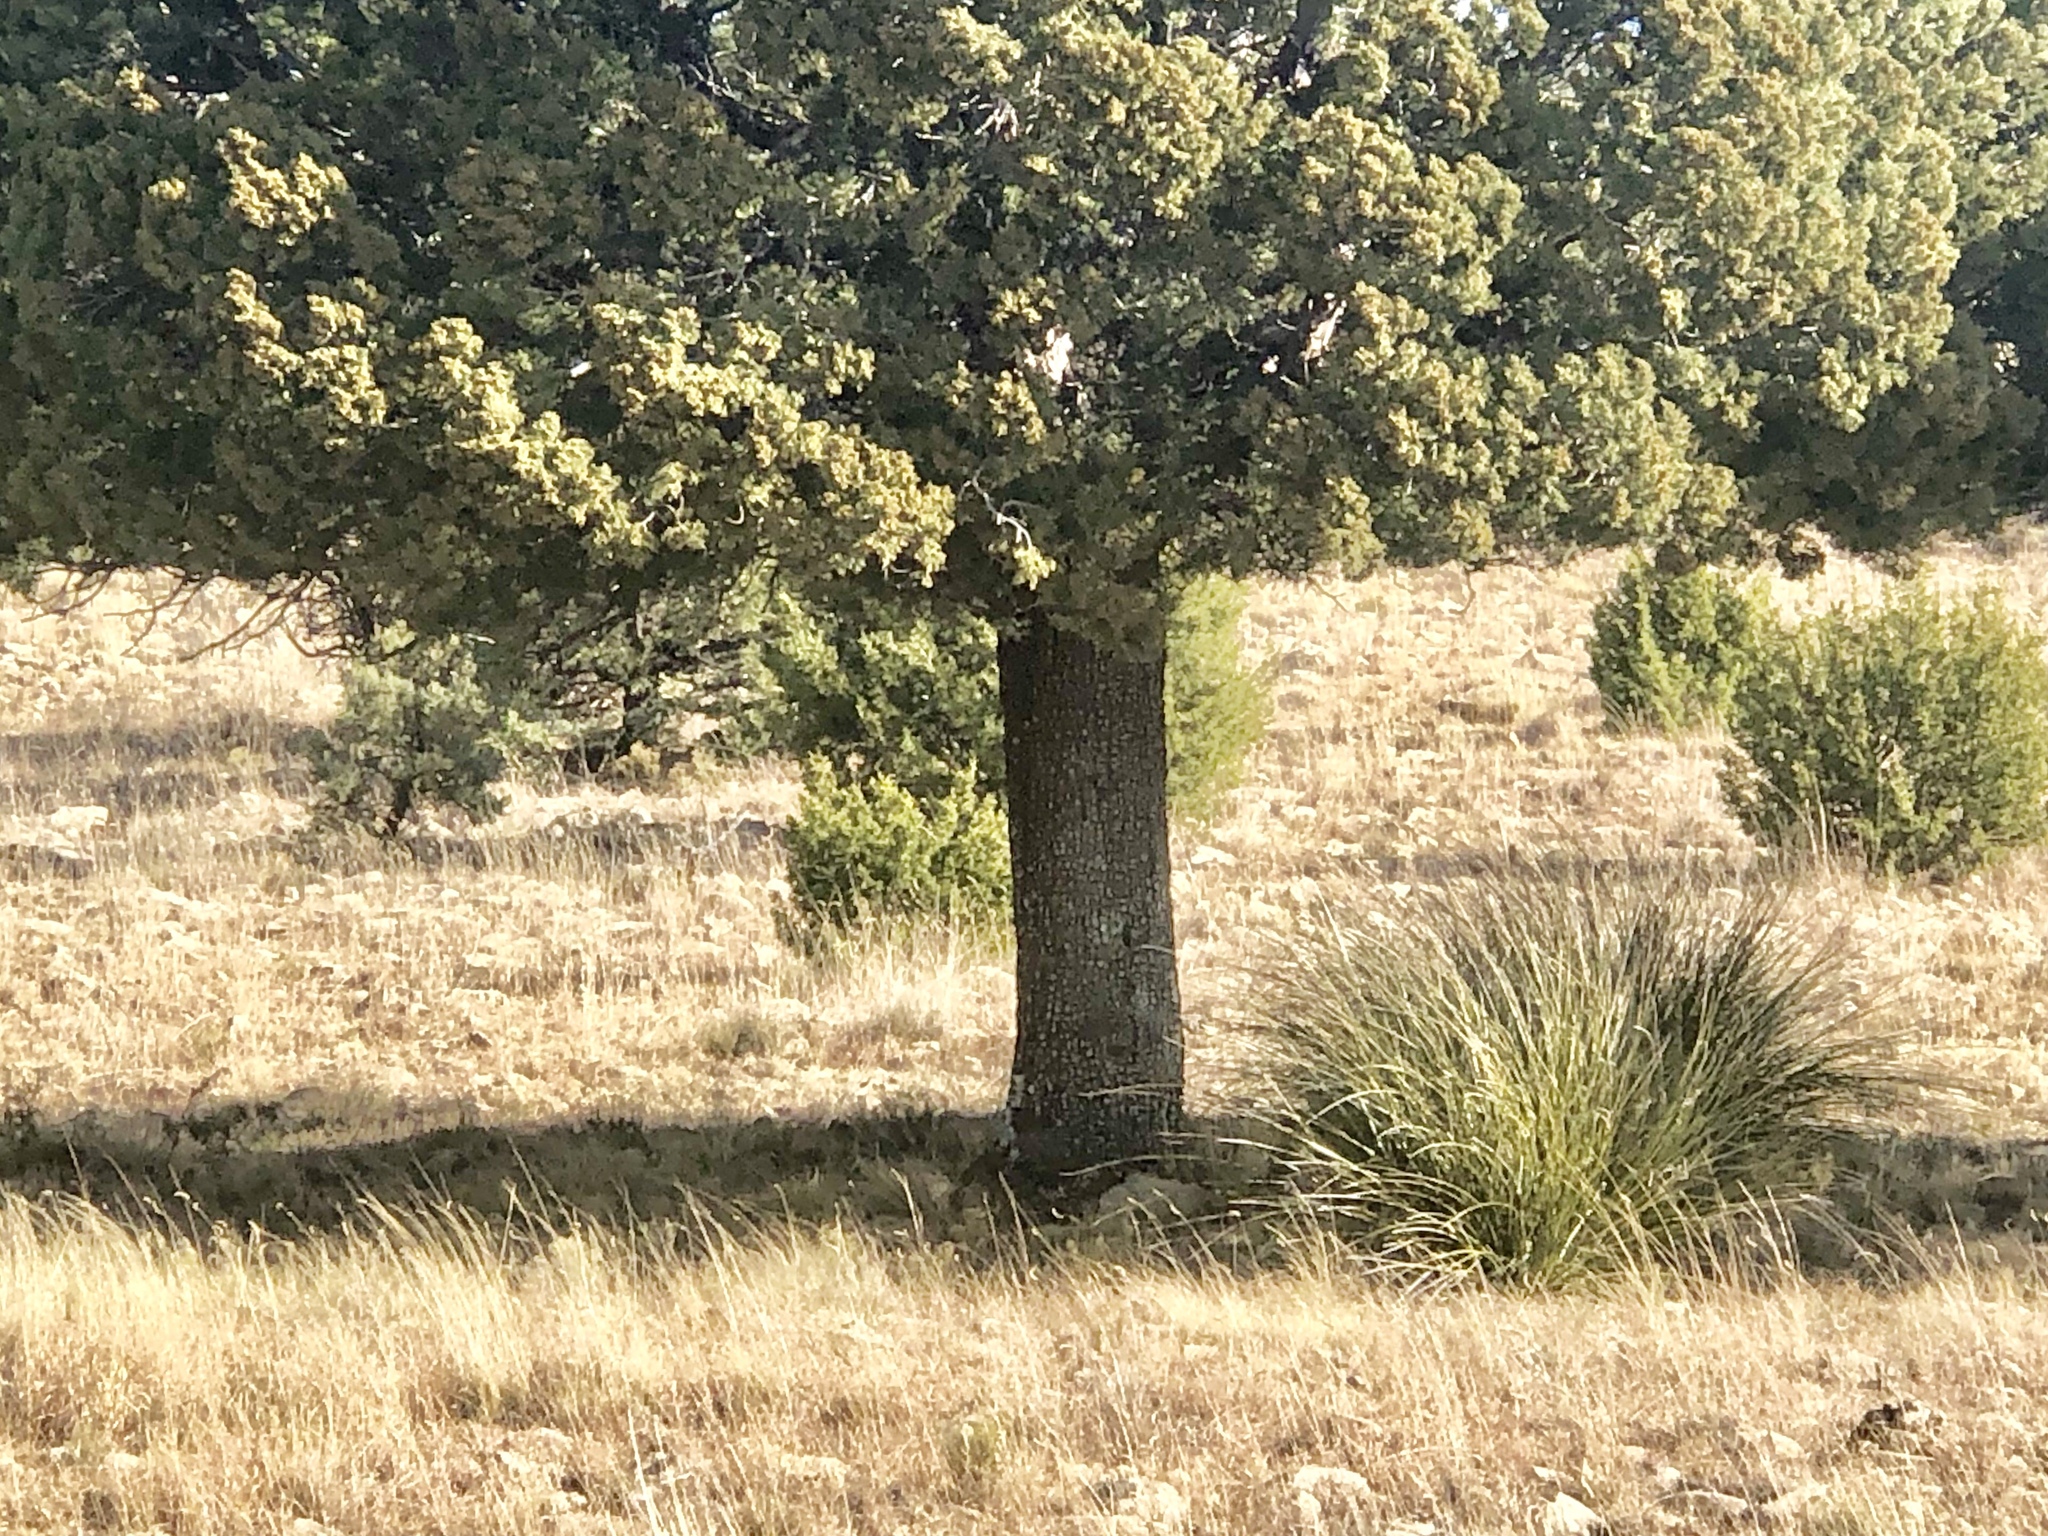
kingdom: Plantae
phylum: Tracheophyta
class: Pinopsida
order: Pinales
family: Cupressaceae
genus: Juniperus
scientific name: Juniperus deppeana
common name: Alligator juniper
